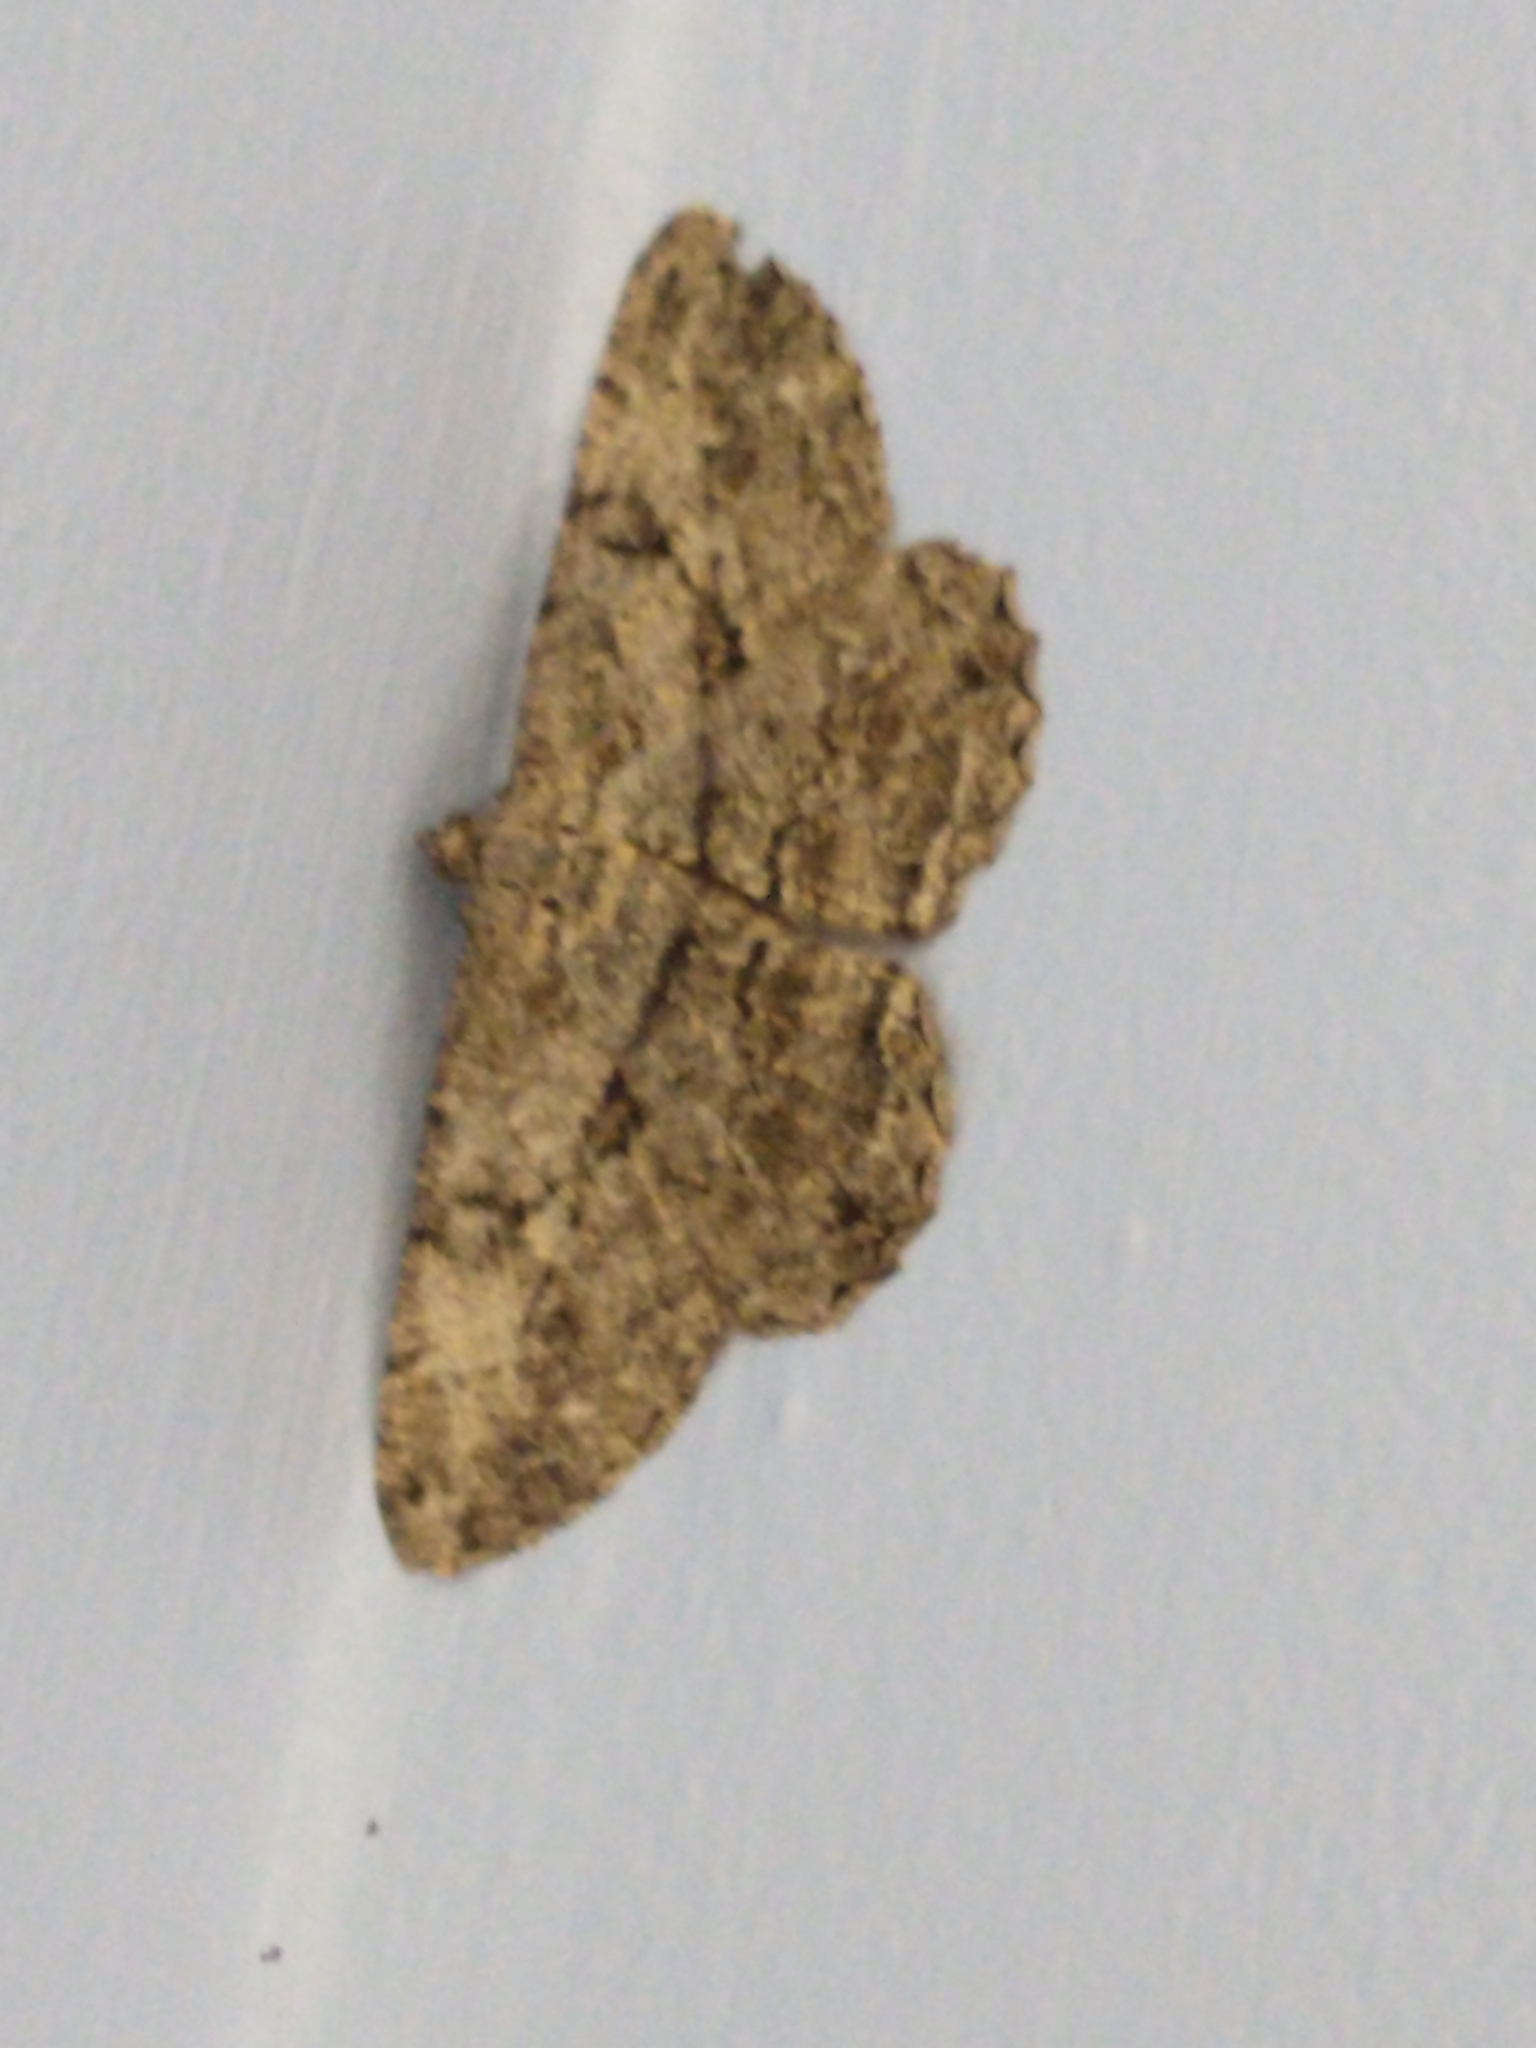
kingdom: Animalia
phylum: Arthropoda
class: Insecta
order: Lepidoptera
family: Geometridae
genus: Peribatodes
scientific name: Peribatodes rhomboidaria
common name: Willow beauty
